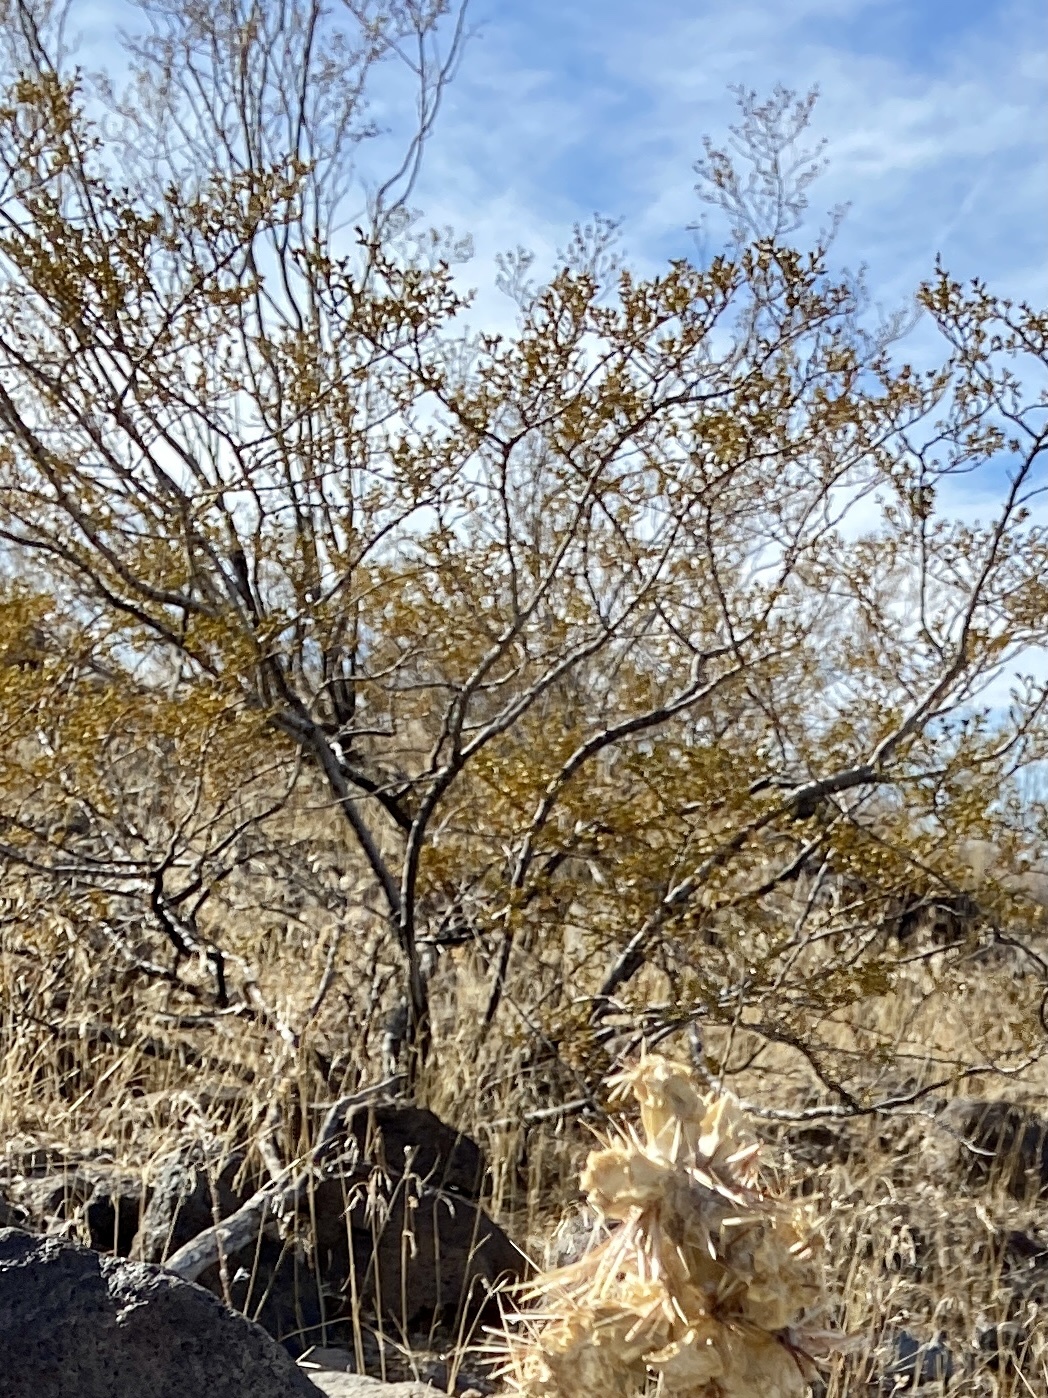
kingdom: Plantae
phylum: Tracheophyta
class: Magnoliopsida
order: Zygophyllales
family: Zygophyllaceae
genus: Larrea
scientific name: Larrea tridentata
